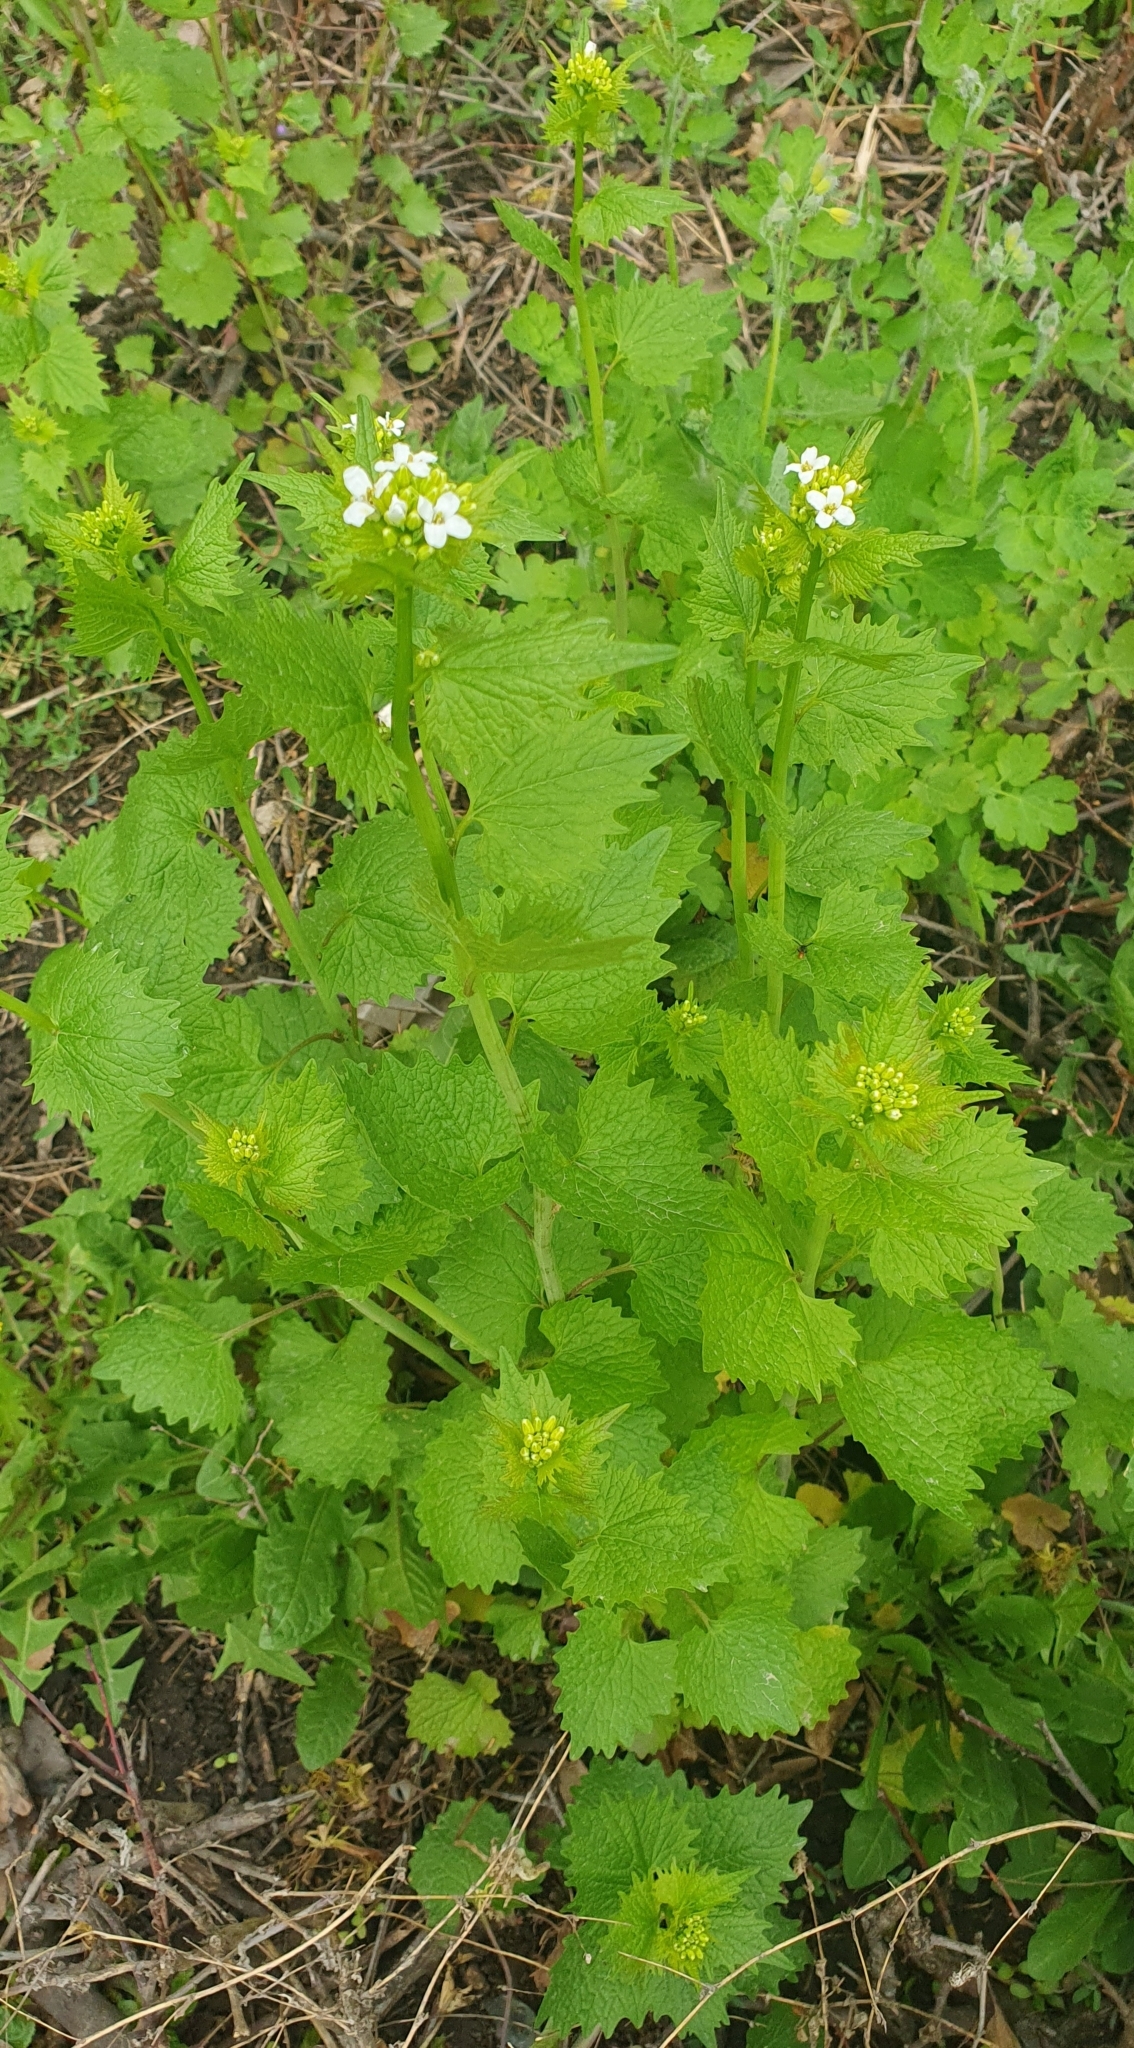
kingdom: Plantae
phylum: Tracheophyta
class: Magnoliopsida
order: Brassicales
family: Brassicaceae
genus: Alliaria
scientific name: Alliaria petiolata
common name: Garlic mustard
